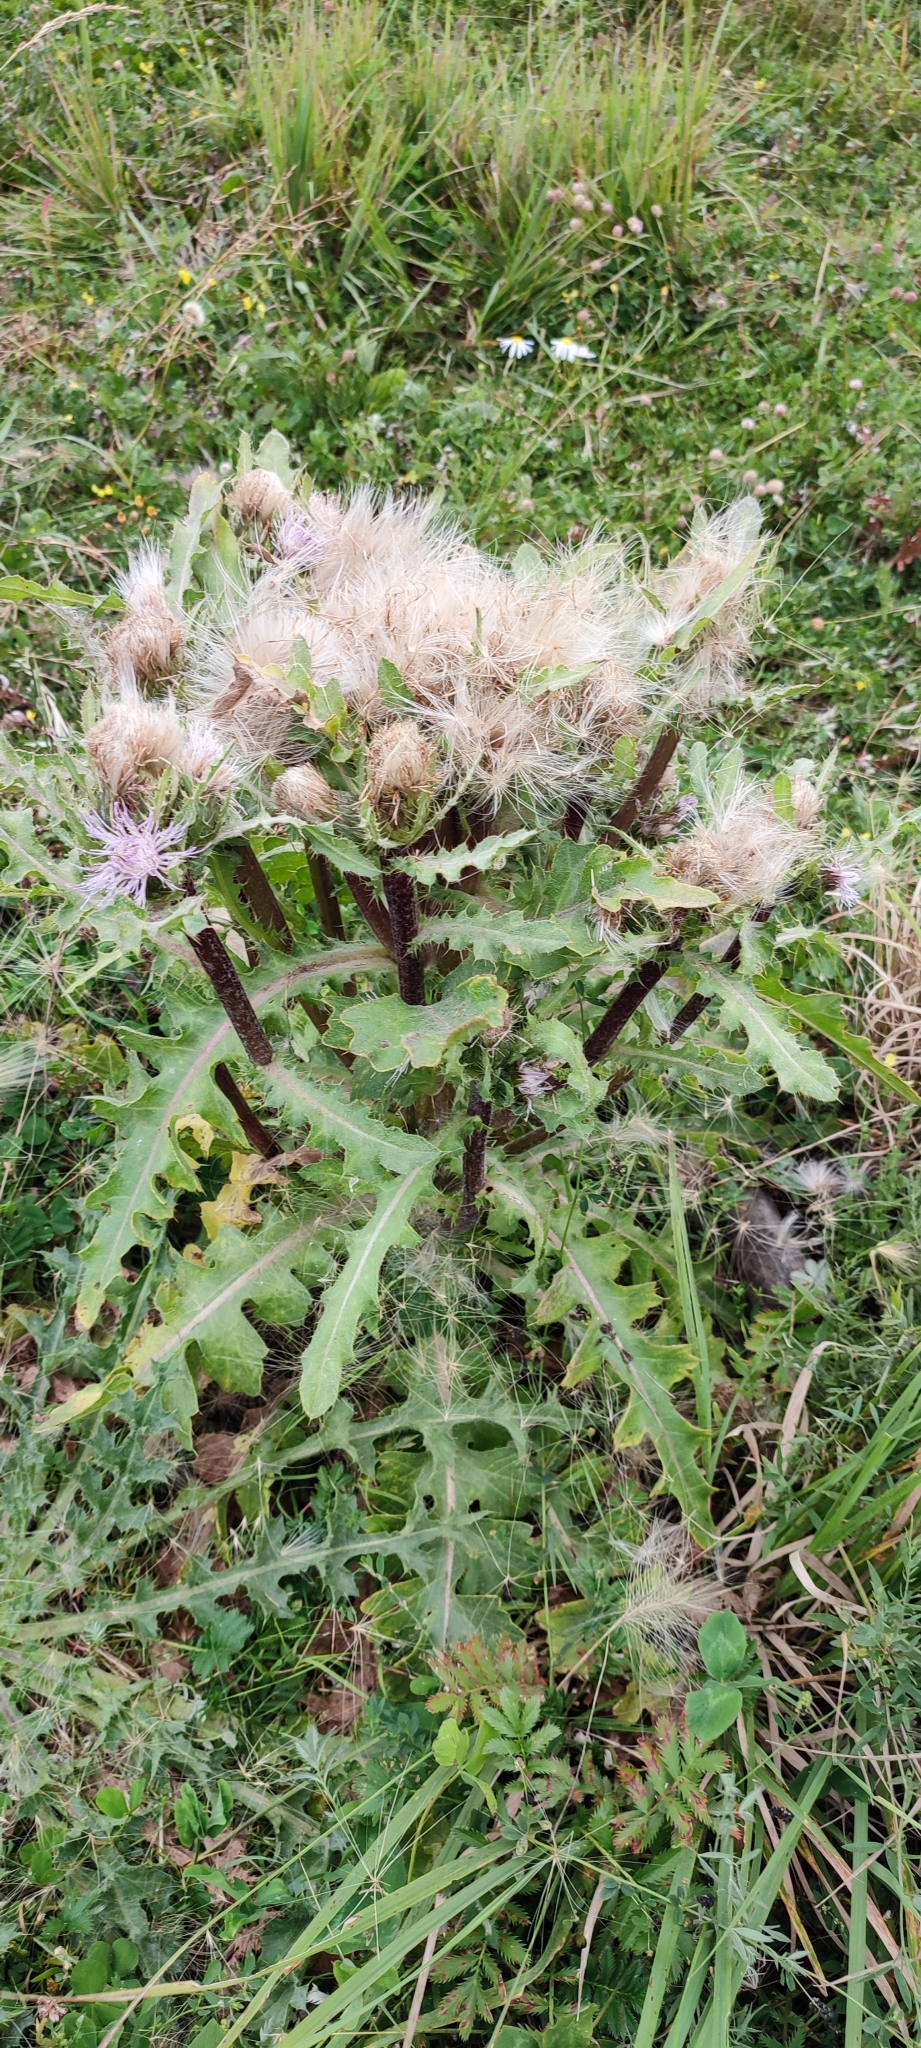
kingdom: Plantae
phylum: Tracheophyta
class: Magnoliopsida
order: Asterales
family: Asteraceae
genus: Cirsium
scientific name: Cirsium esculentum
